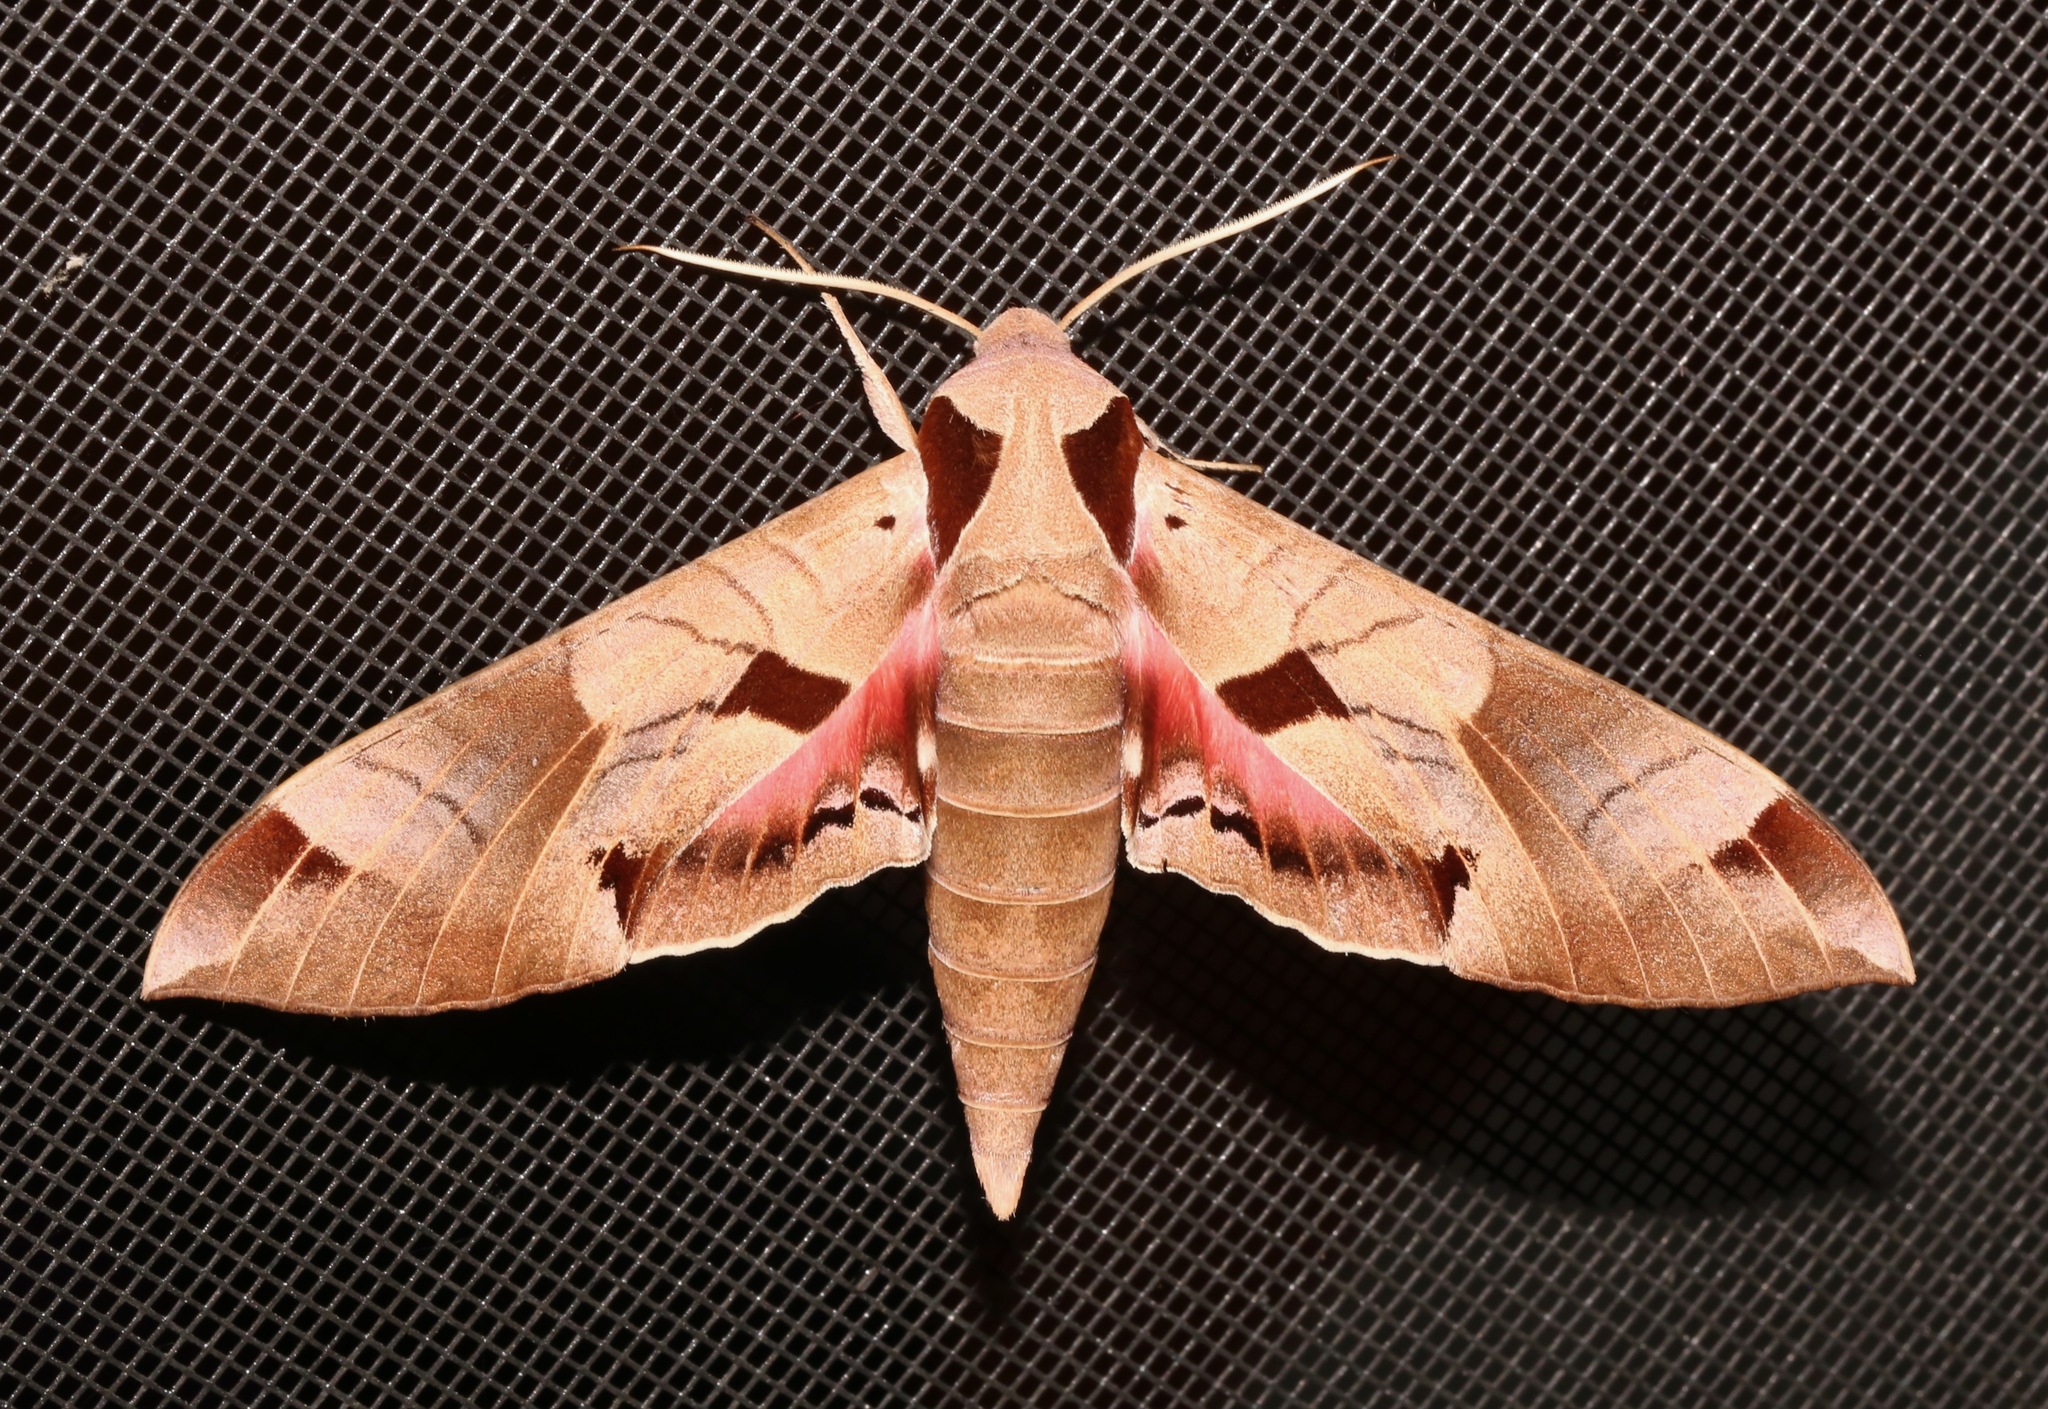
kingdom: Animalia
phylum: Arthropoda
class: Insecta
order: Lepidoptera
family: Sphingidae
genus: Eumorpha
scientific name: Eumorpha achemon
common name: Achemon sphinx
